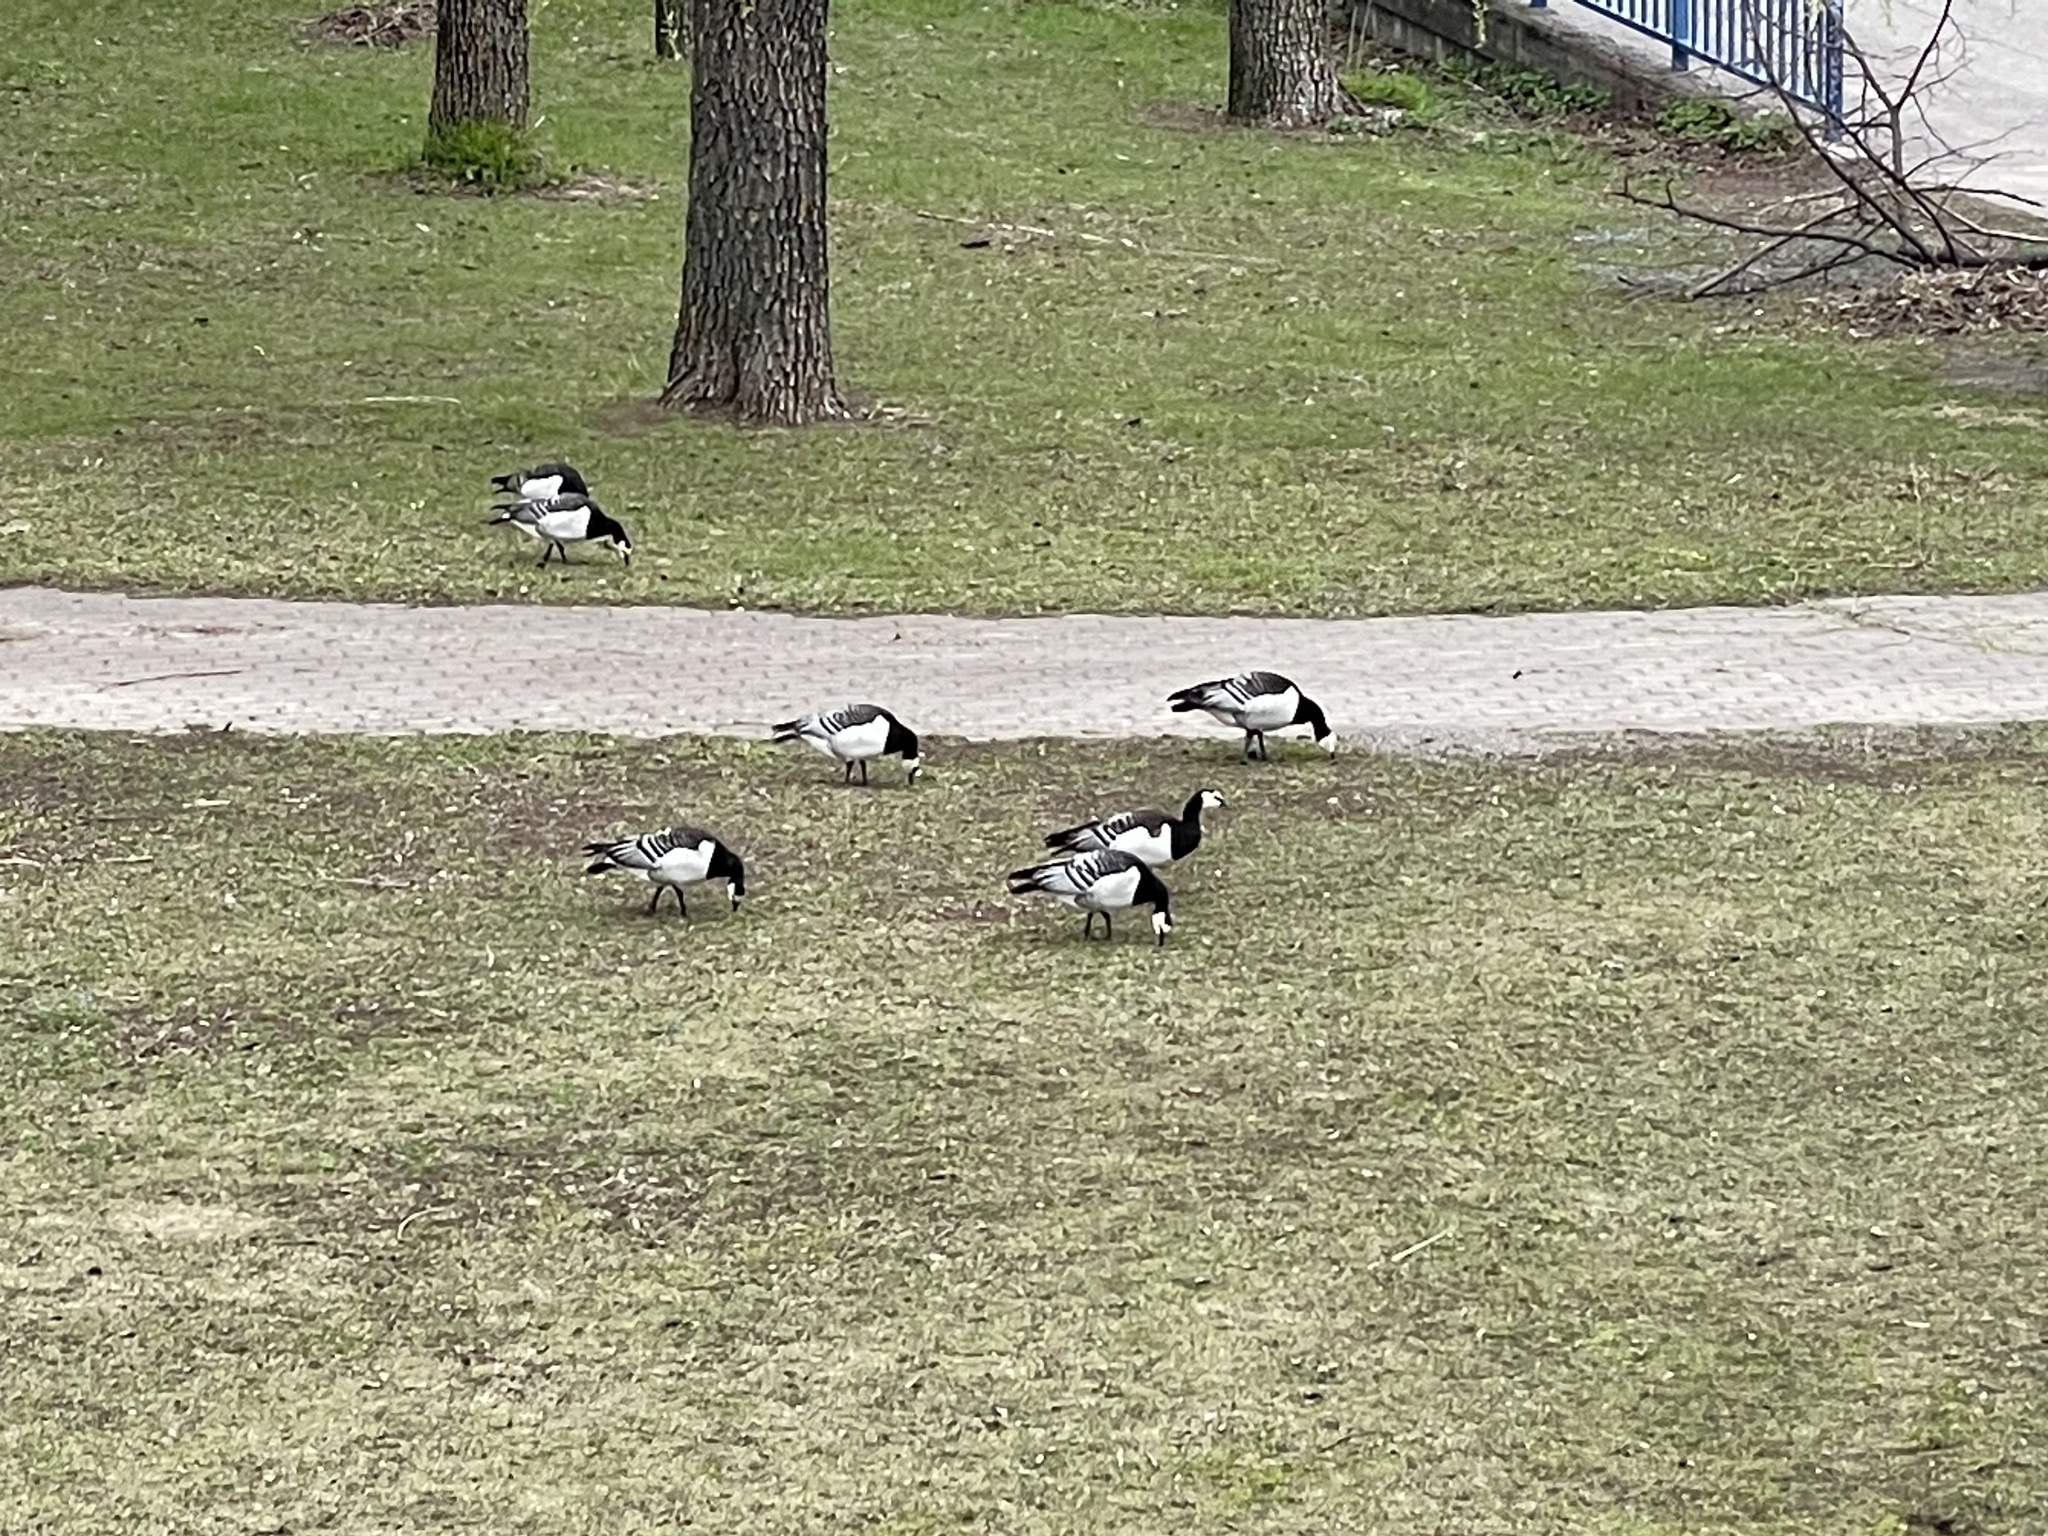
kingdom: Animalia
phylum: Chordata
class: Aves
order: Anseriformes
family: Anatidae
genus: Branta
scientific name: Branta leucopsis
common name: Barnacle goose
